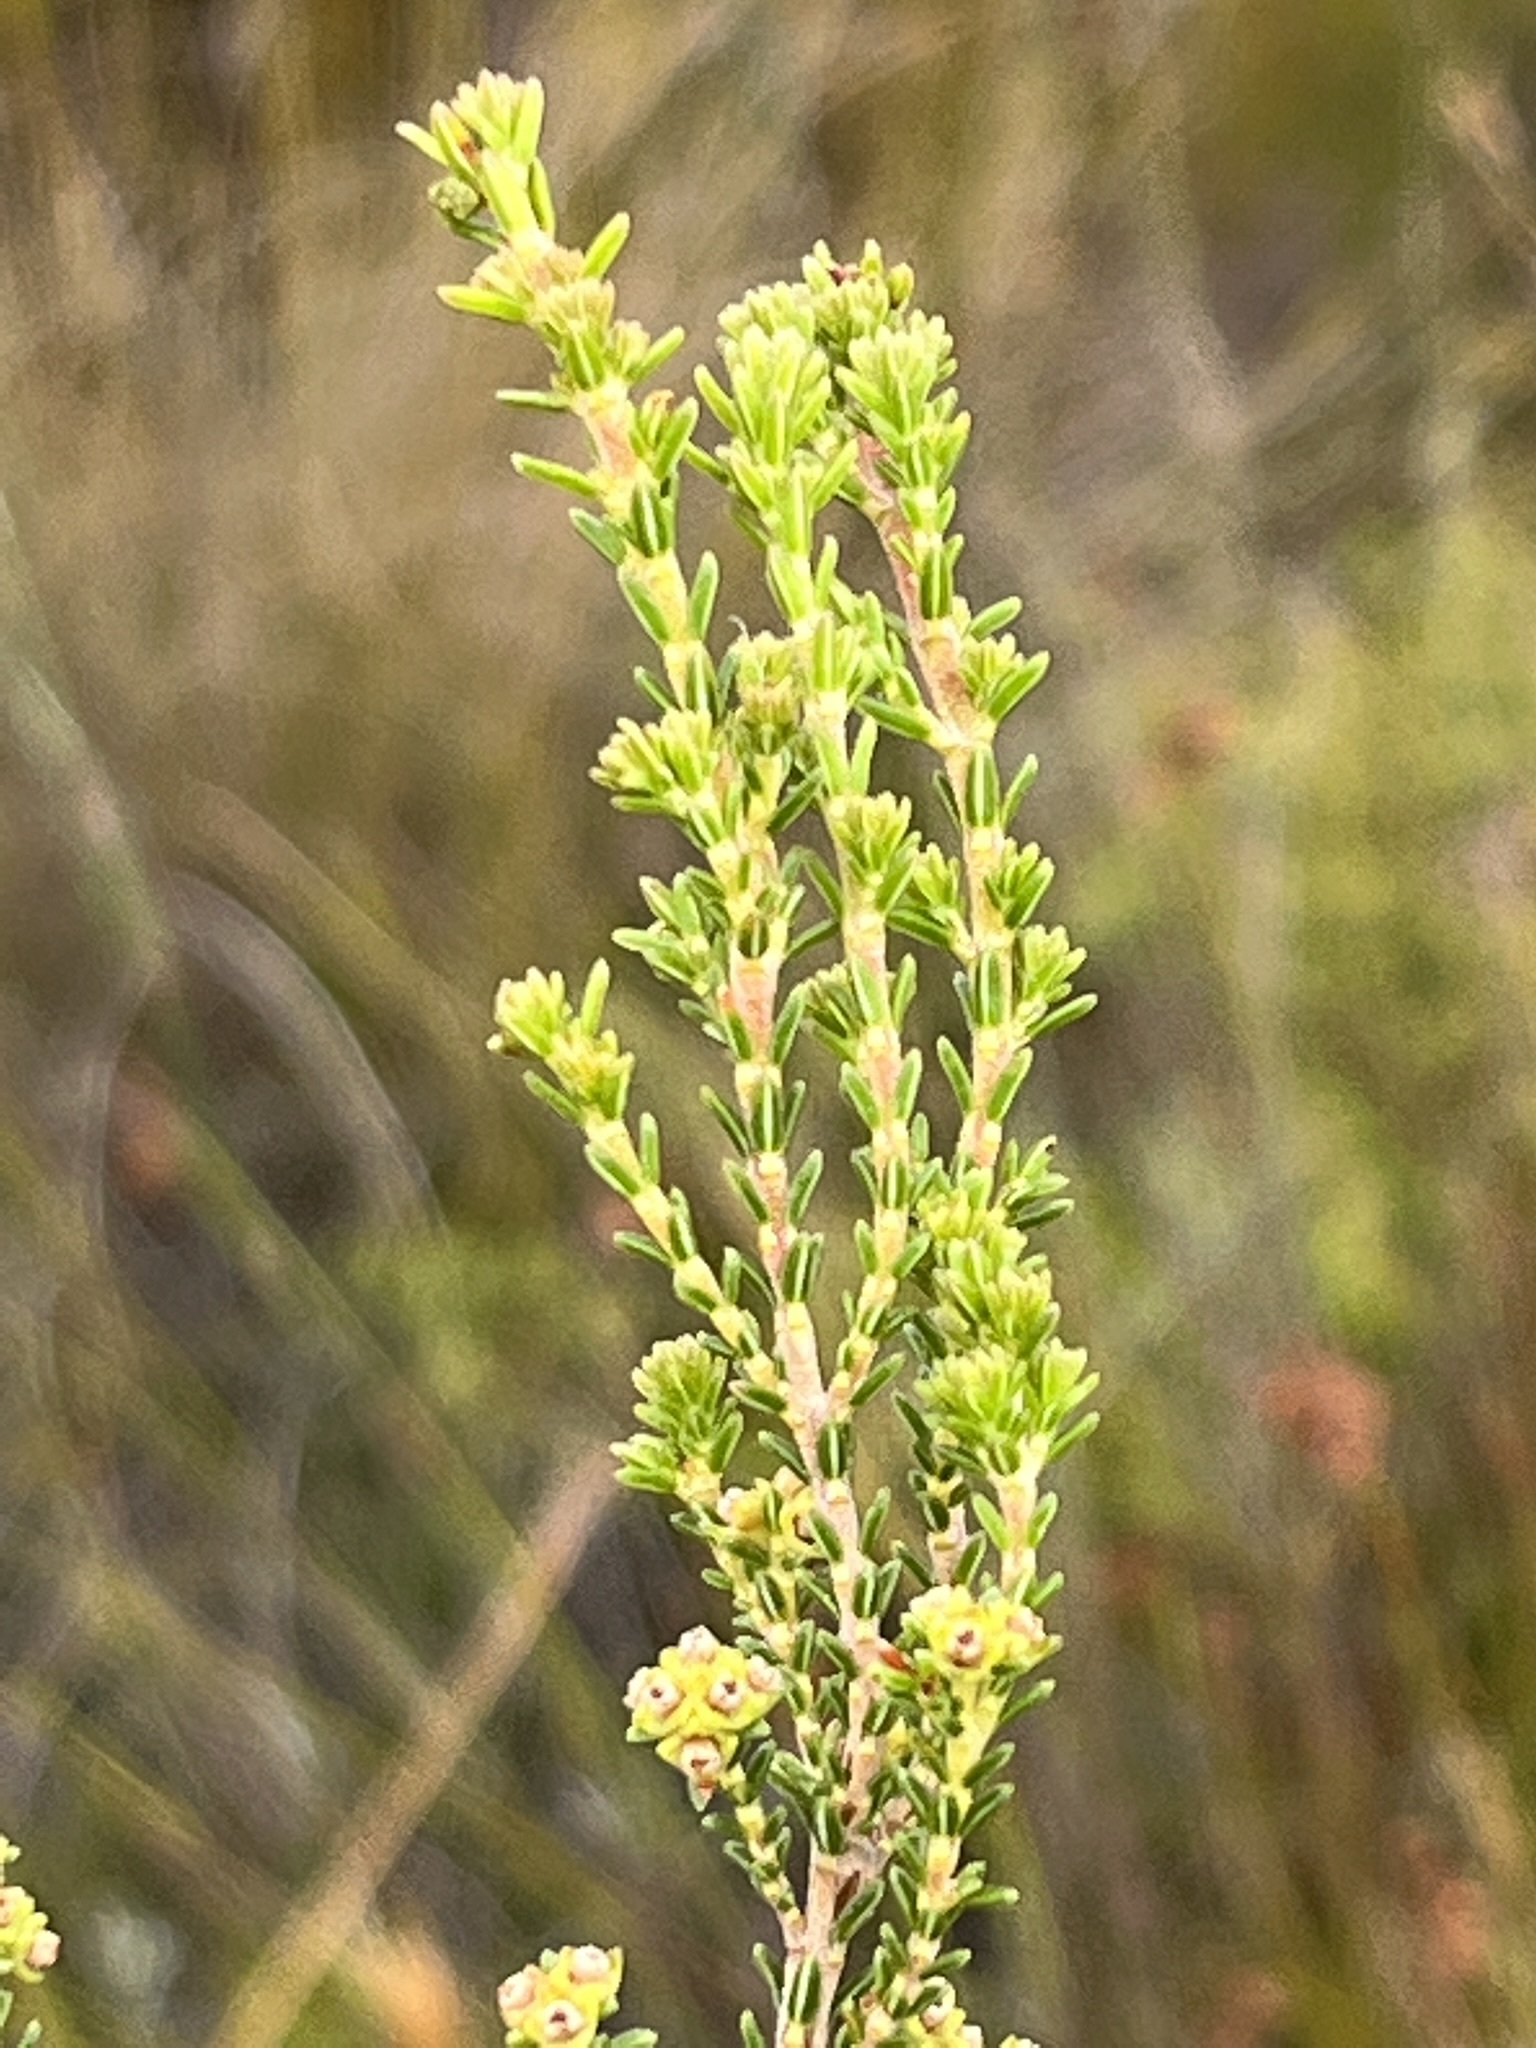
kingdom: Plantae
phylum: Tracheophyta
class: Magnoliopsida
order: Ericales
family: Ericaceae
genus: Erica
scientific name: Erica serrata
